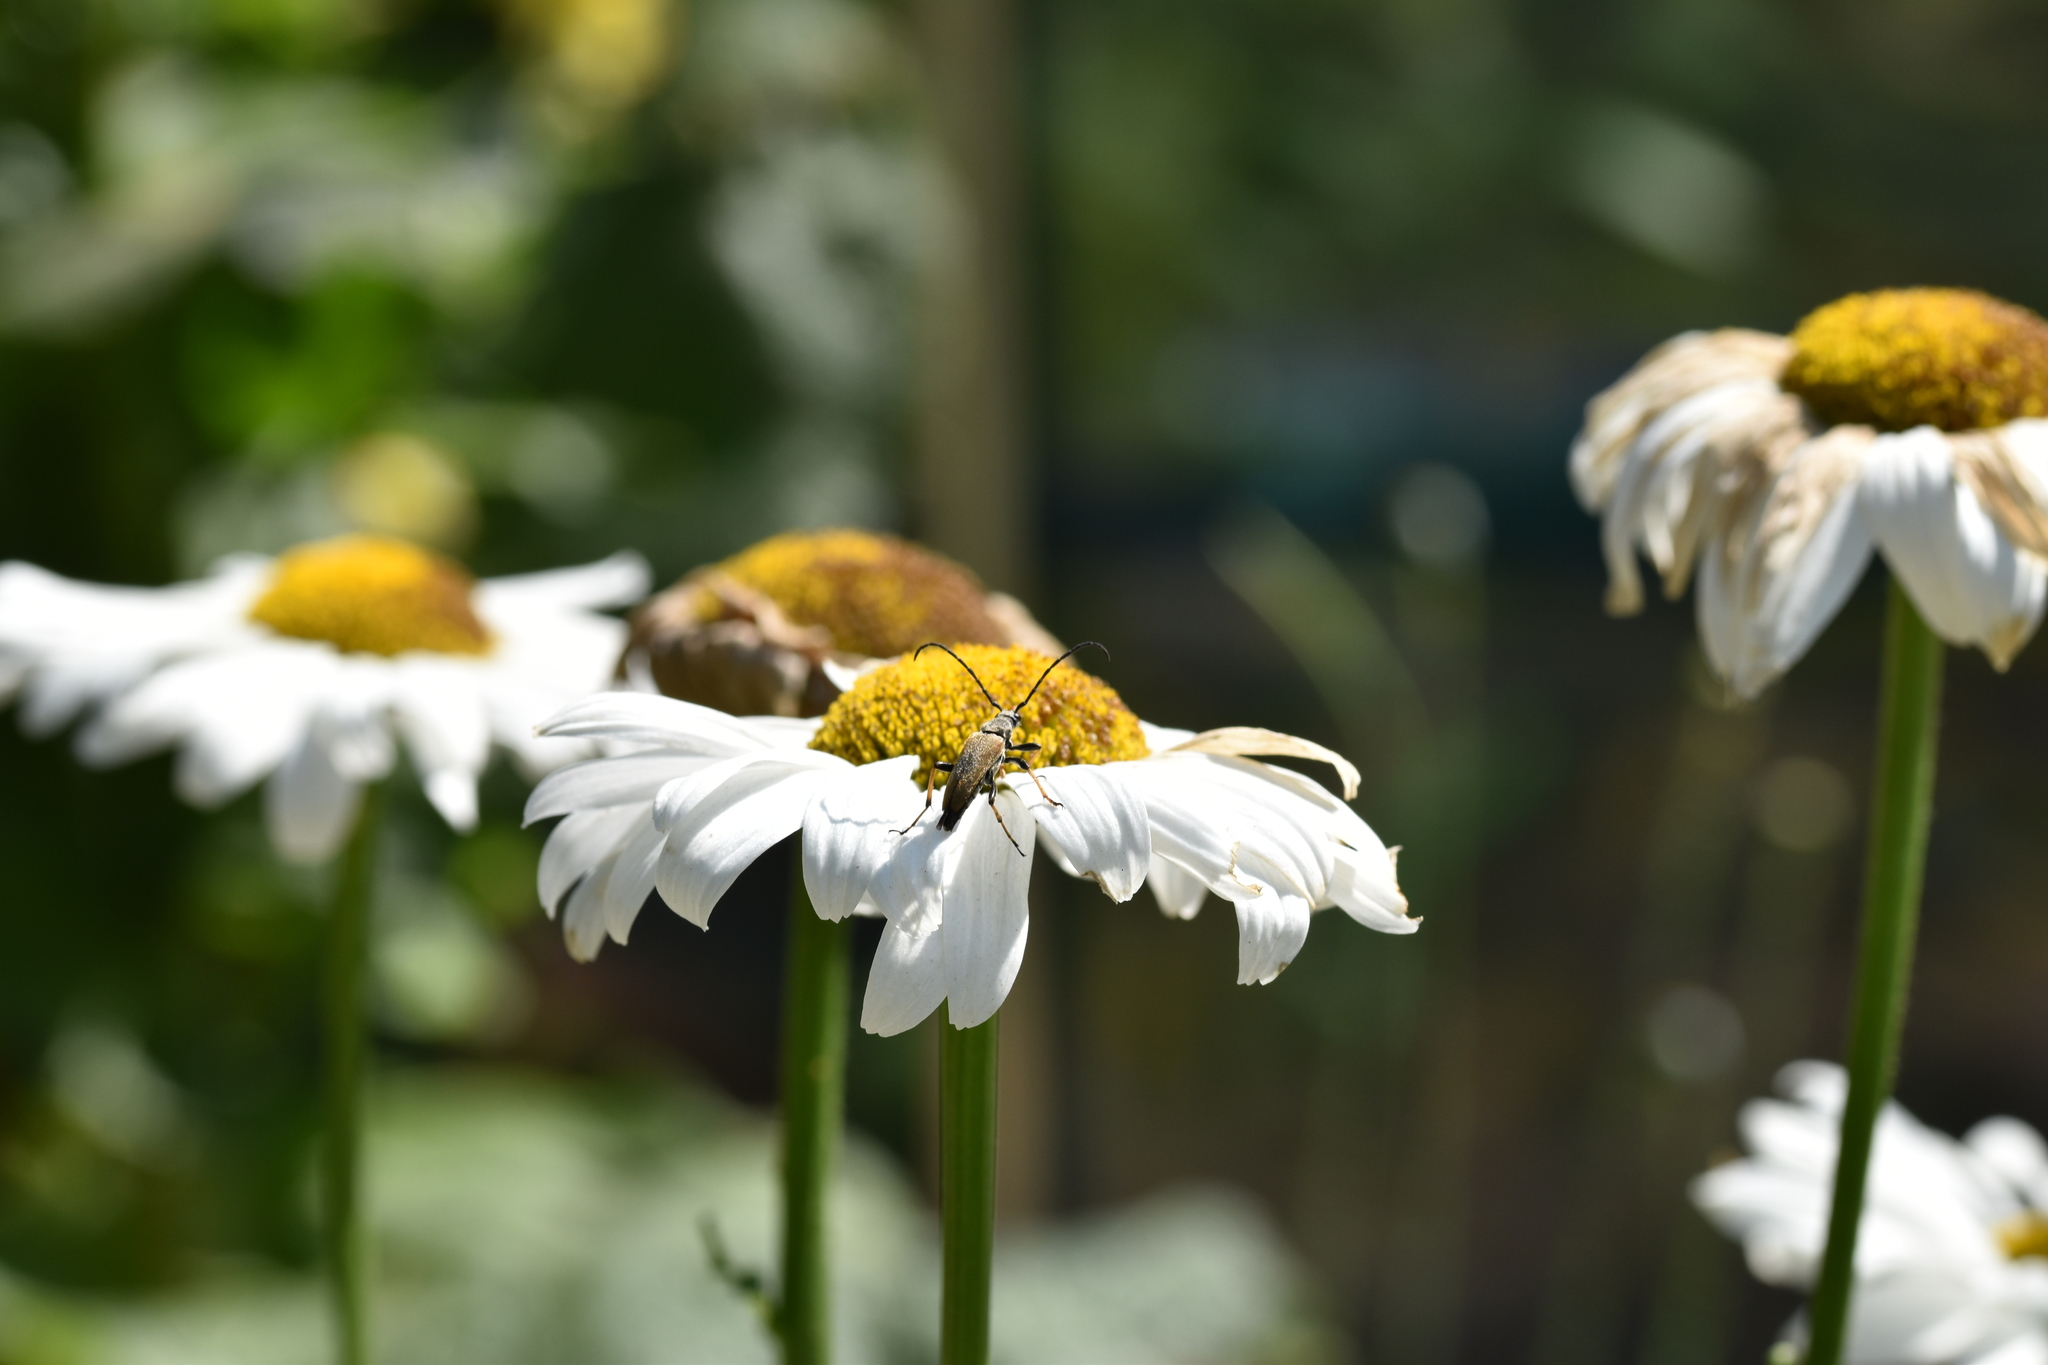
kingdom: Animalia
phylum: Arthropoda
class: Insecta
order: Coleoptera
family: Cerambycidae
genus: Stictoleptura
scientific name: Stictoleptura rubra
